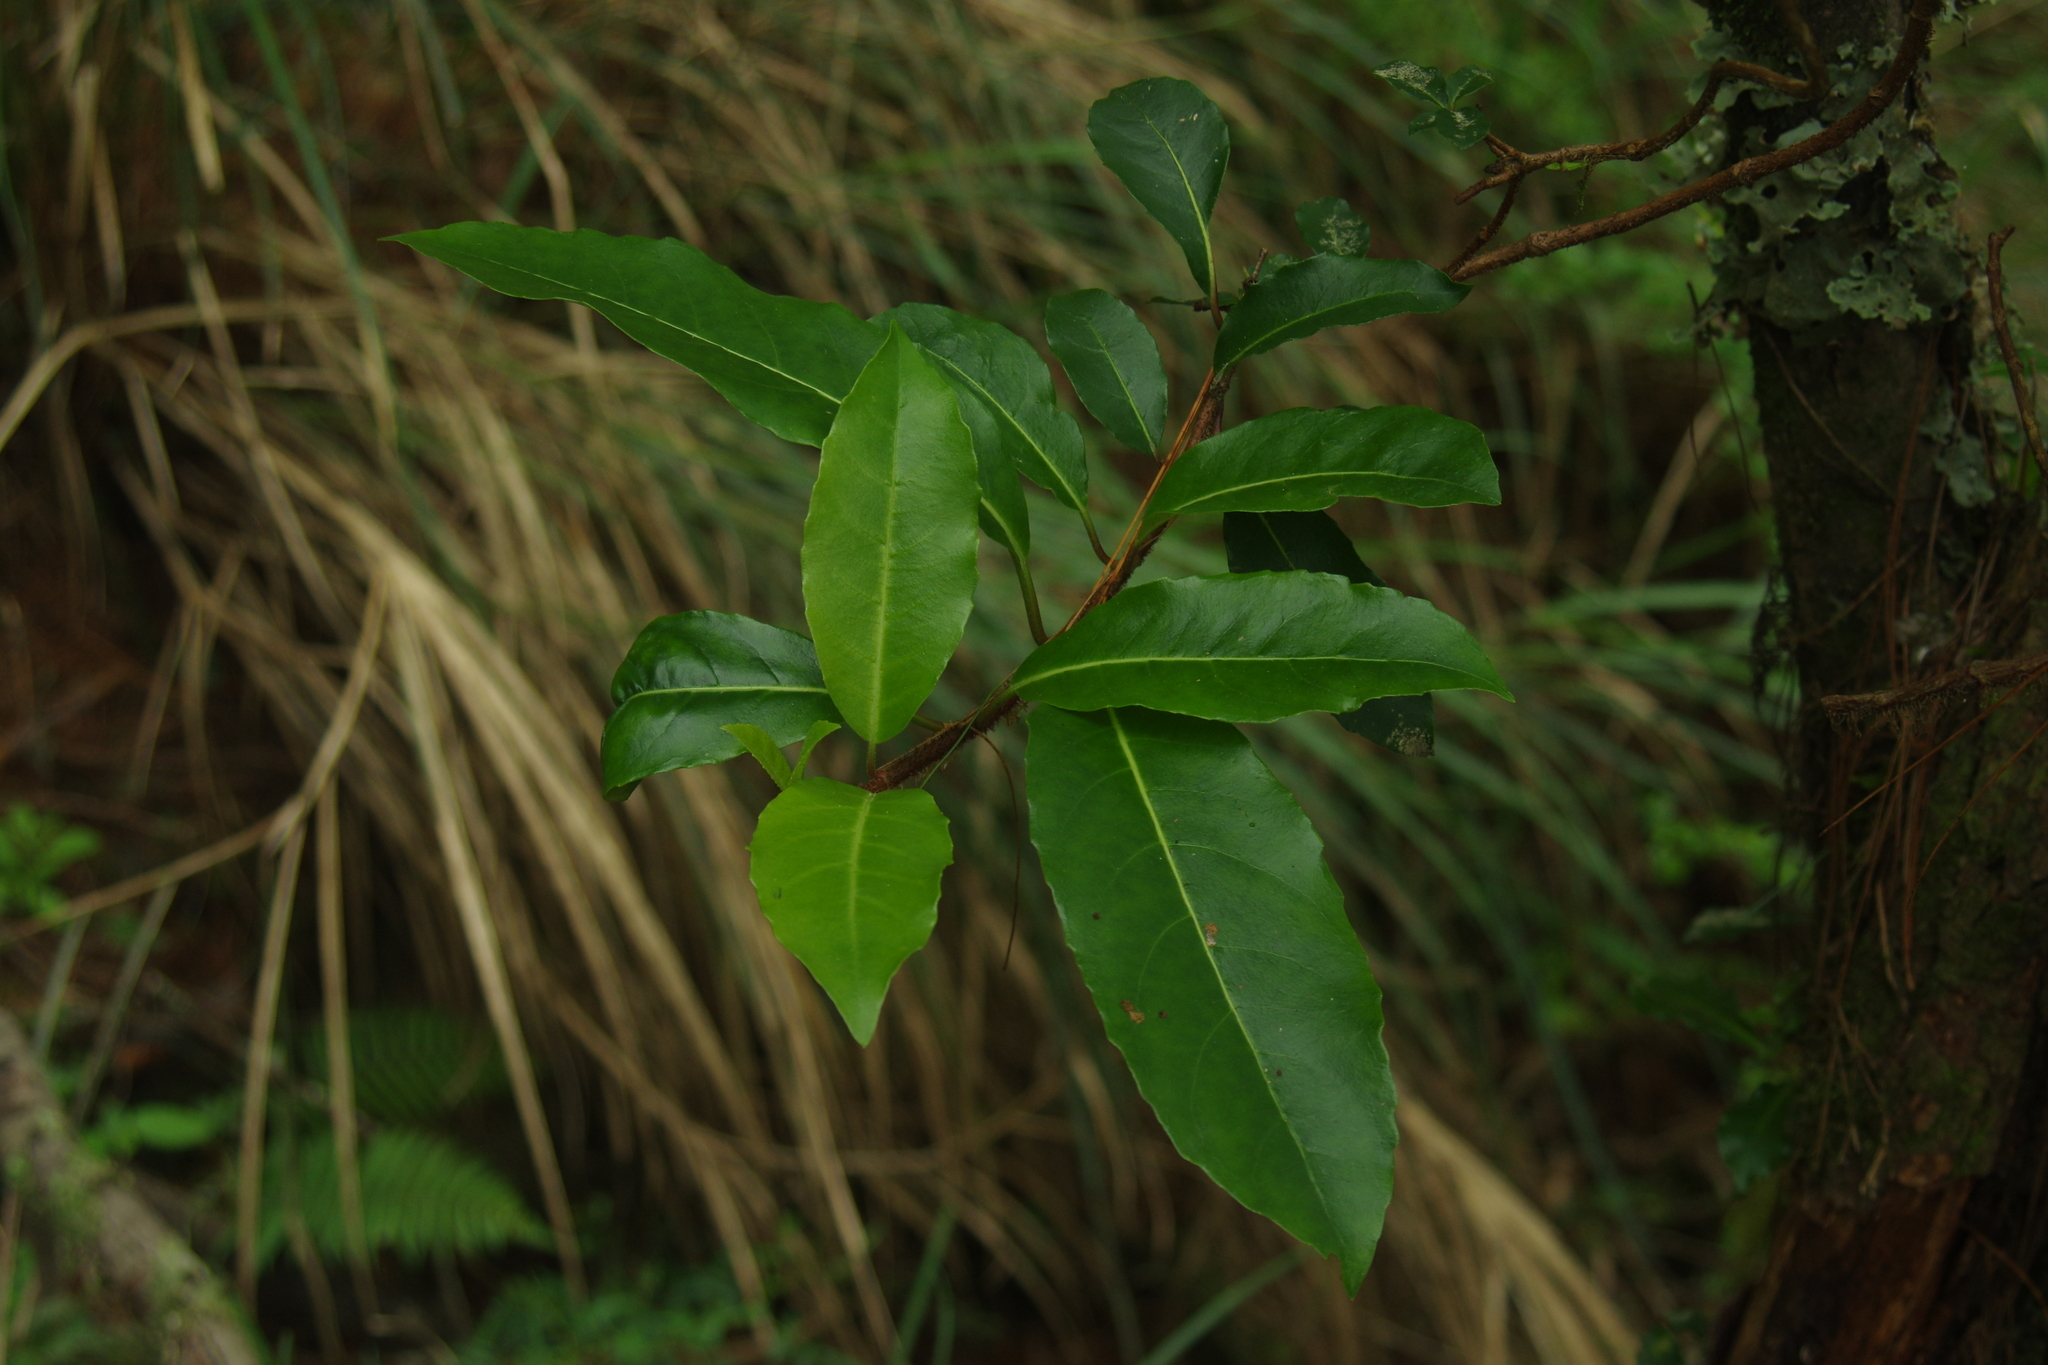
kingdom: Plantae
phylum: Tracheophyta
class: Magnoliopsida
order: Cornales
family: Hydrangeaceae
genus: Hydrangea
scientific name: Hydrangea integrifolia
